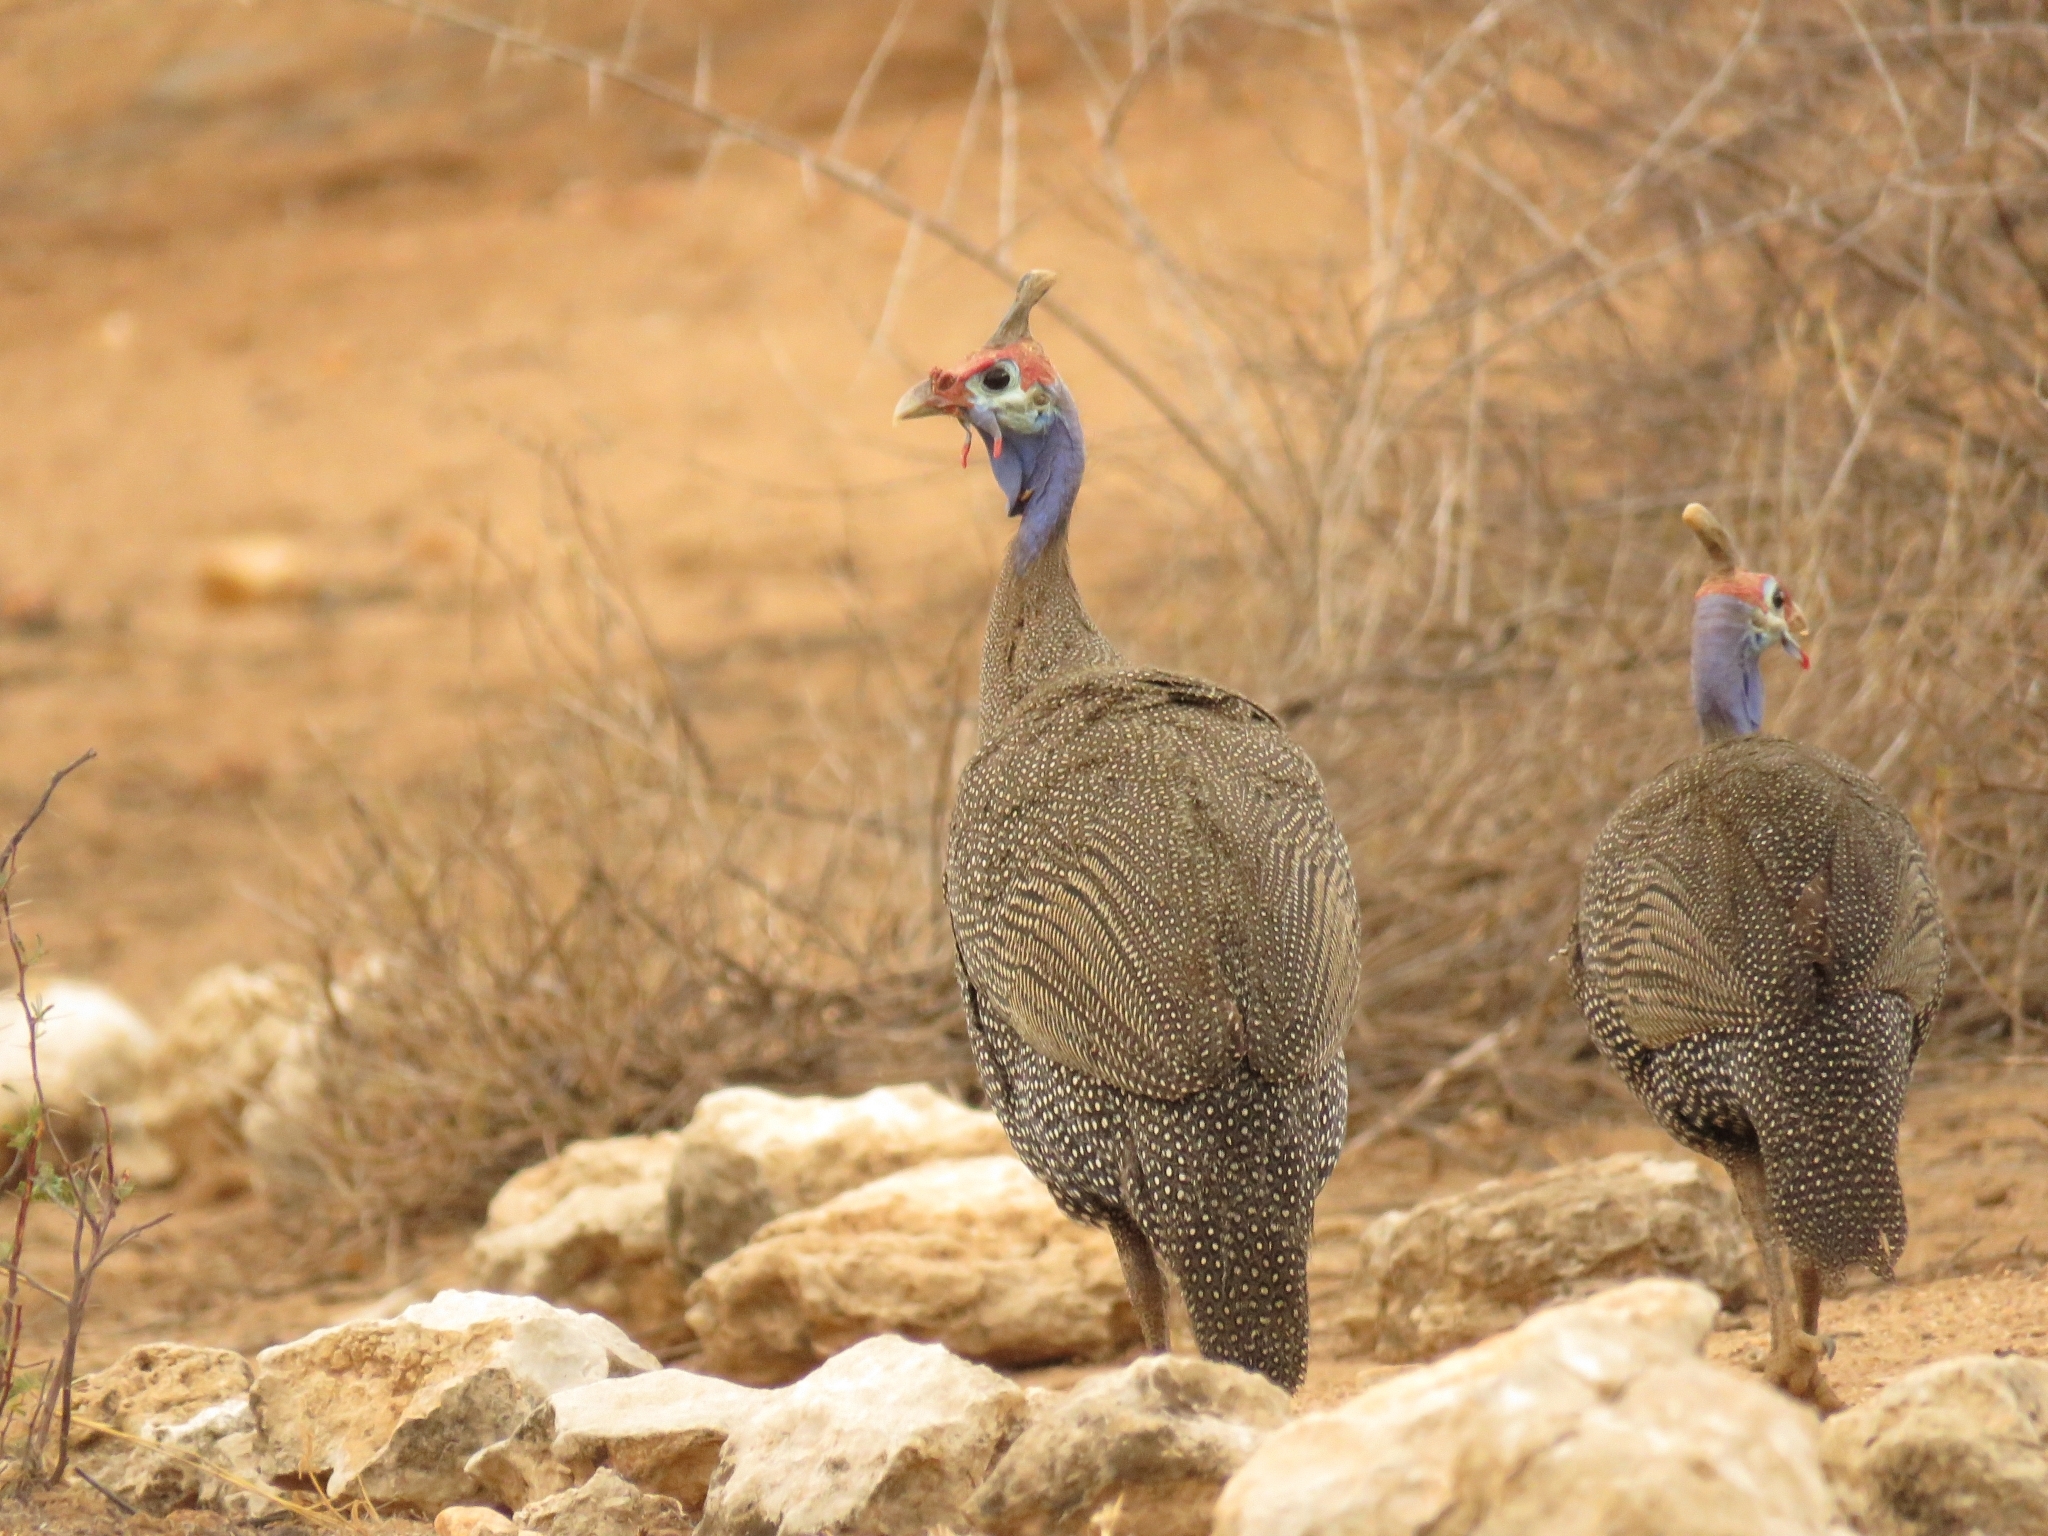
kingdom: Animalia
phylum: Chordata
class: Aves
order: Galliformes
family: Numididae
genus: Numida
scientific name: Numida meleagris
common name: Helmeted guineafowl
